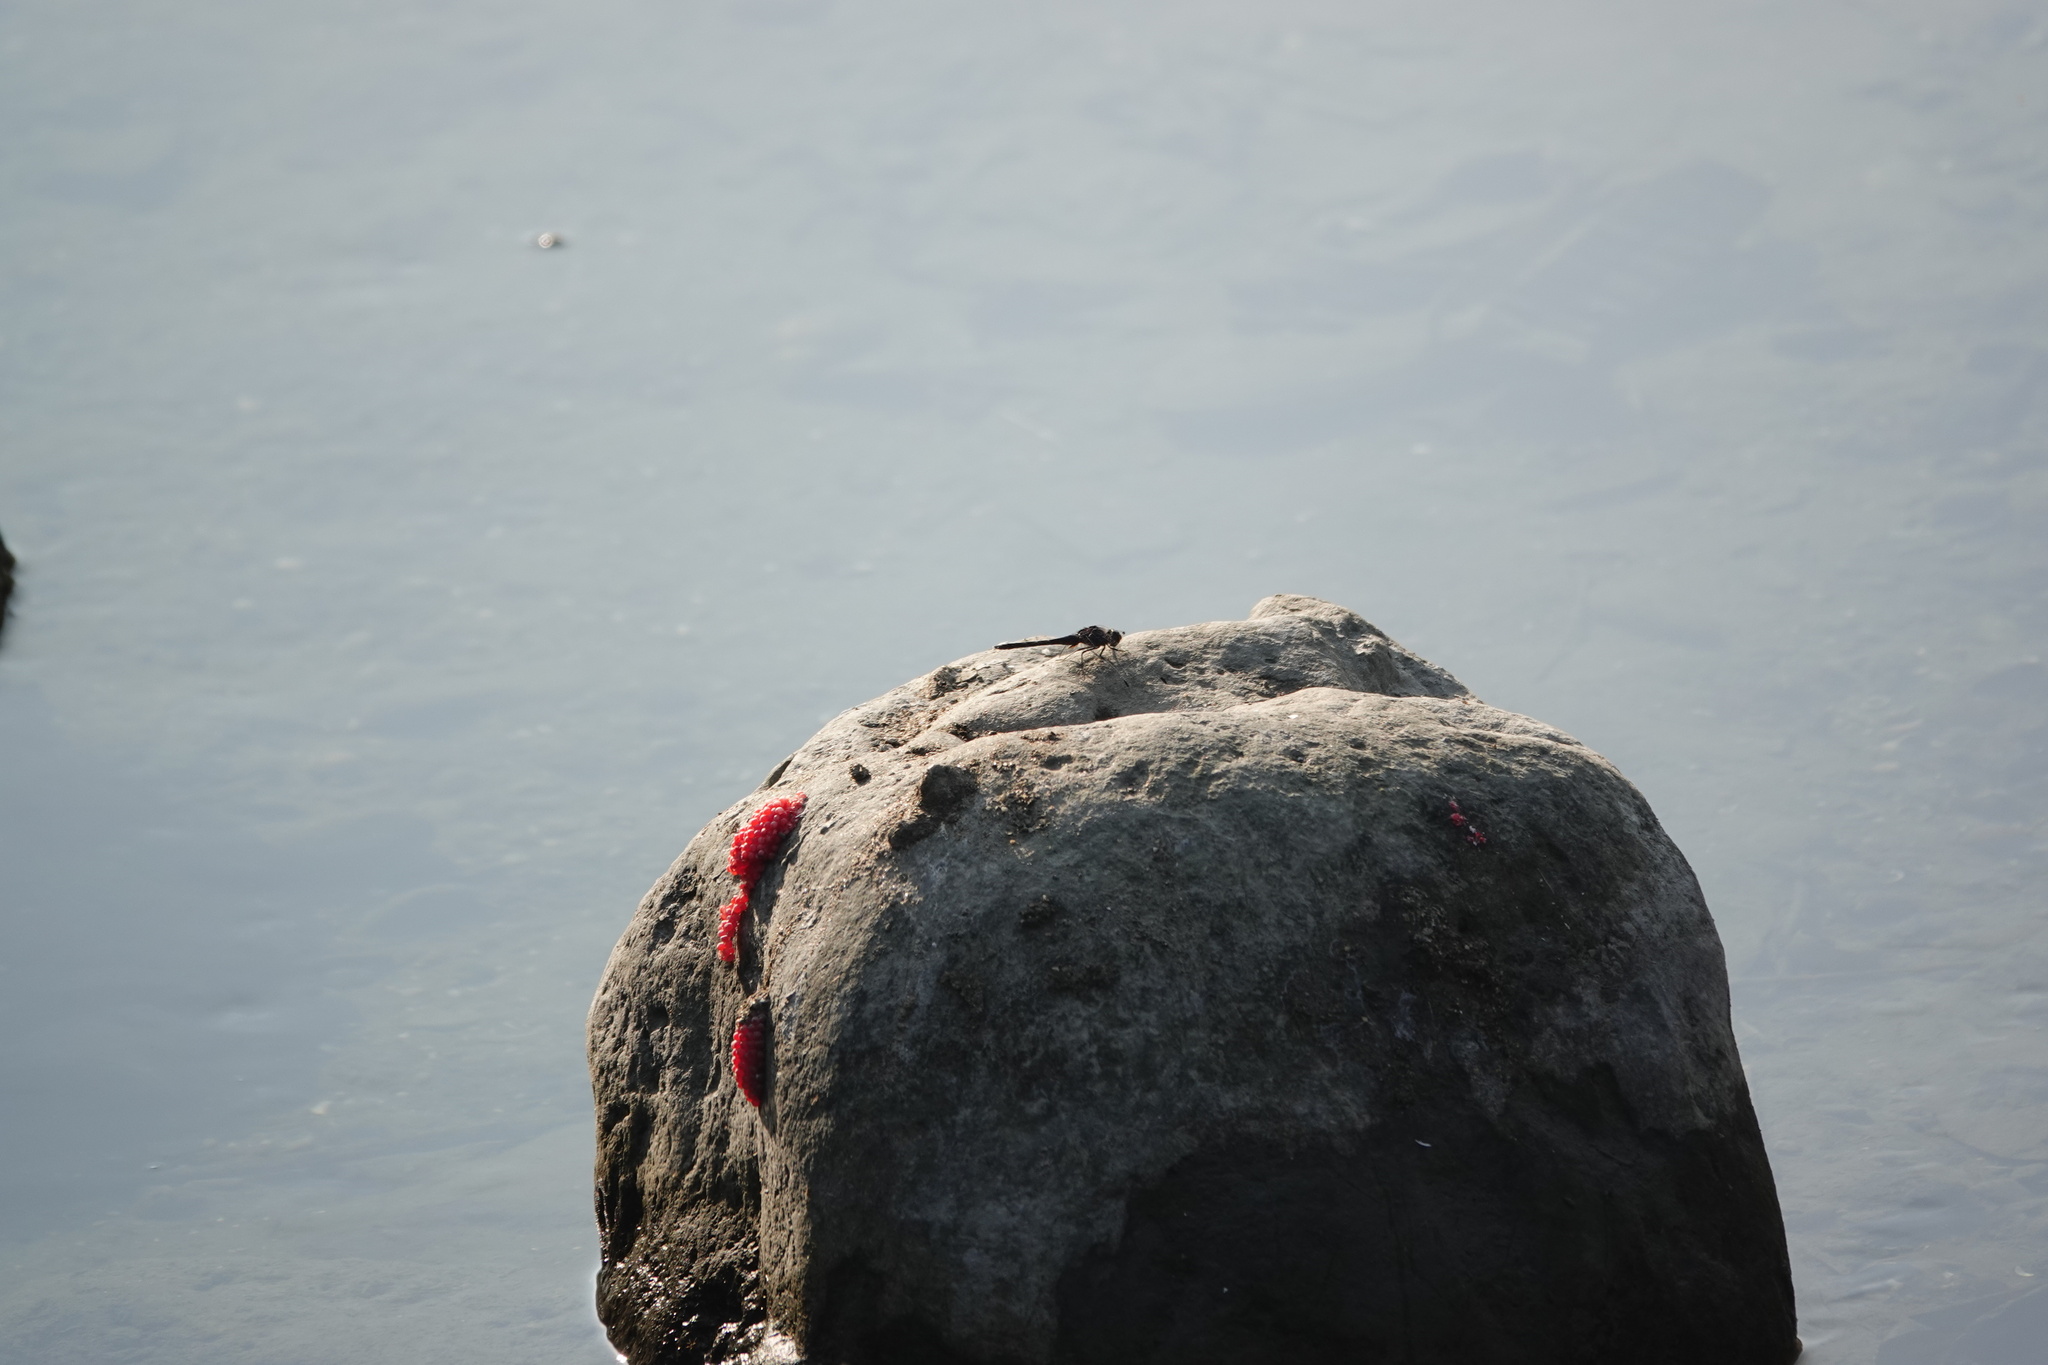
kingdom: Animalia
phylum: Arthropoda
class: Insecta
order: Odonata
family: Libellulidae
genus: Trithemis
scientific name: Trithemis festiva
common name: Indigo dropwing
